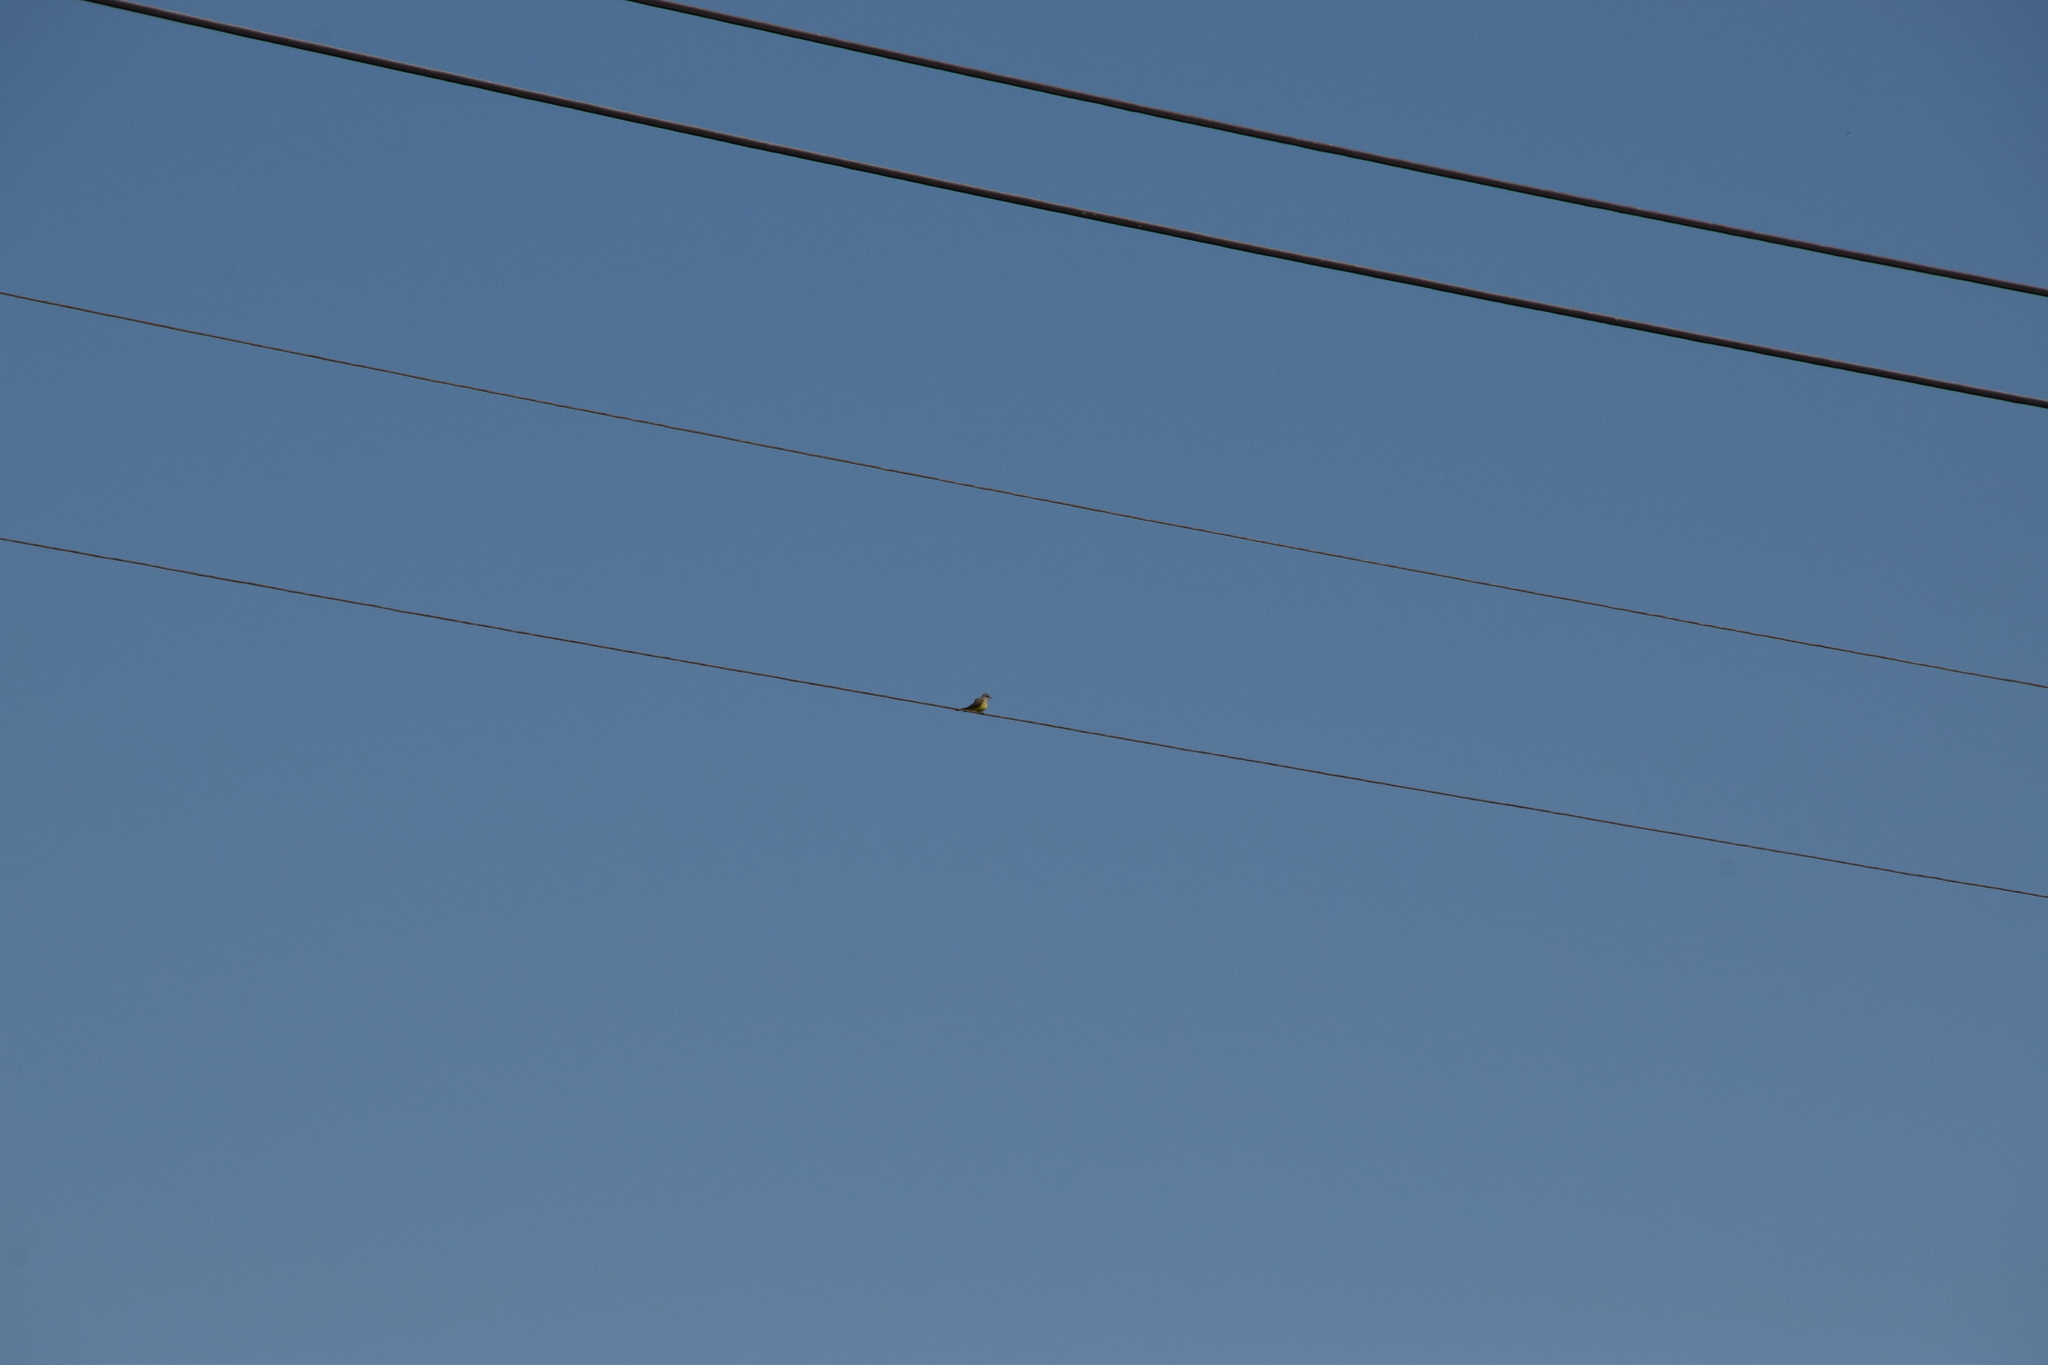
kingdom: Animalia
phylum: Chordata
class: Aves
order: Passeriformes
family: Tyrannidae
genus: Tyrannus
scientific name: Tyrannus verticalis
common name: Western kingbird
